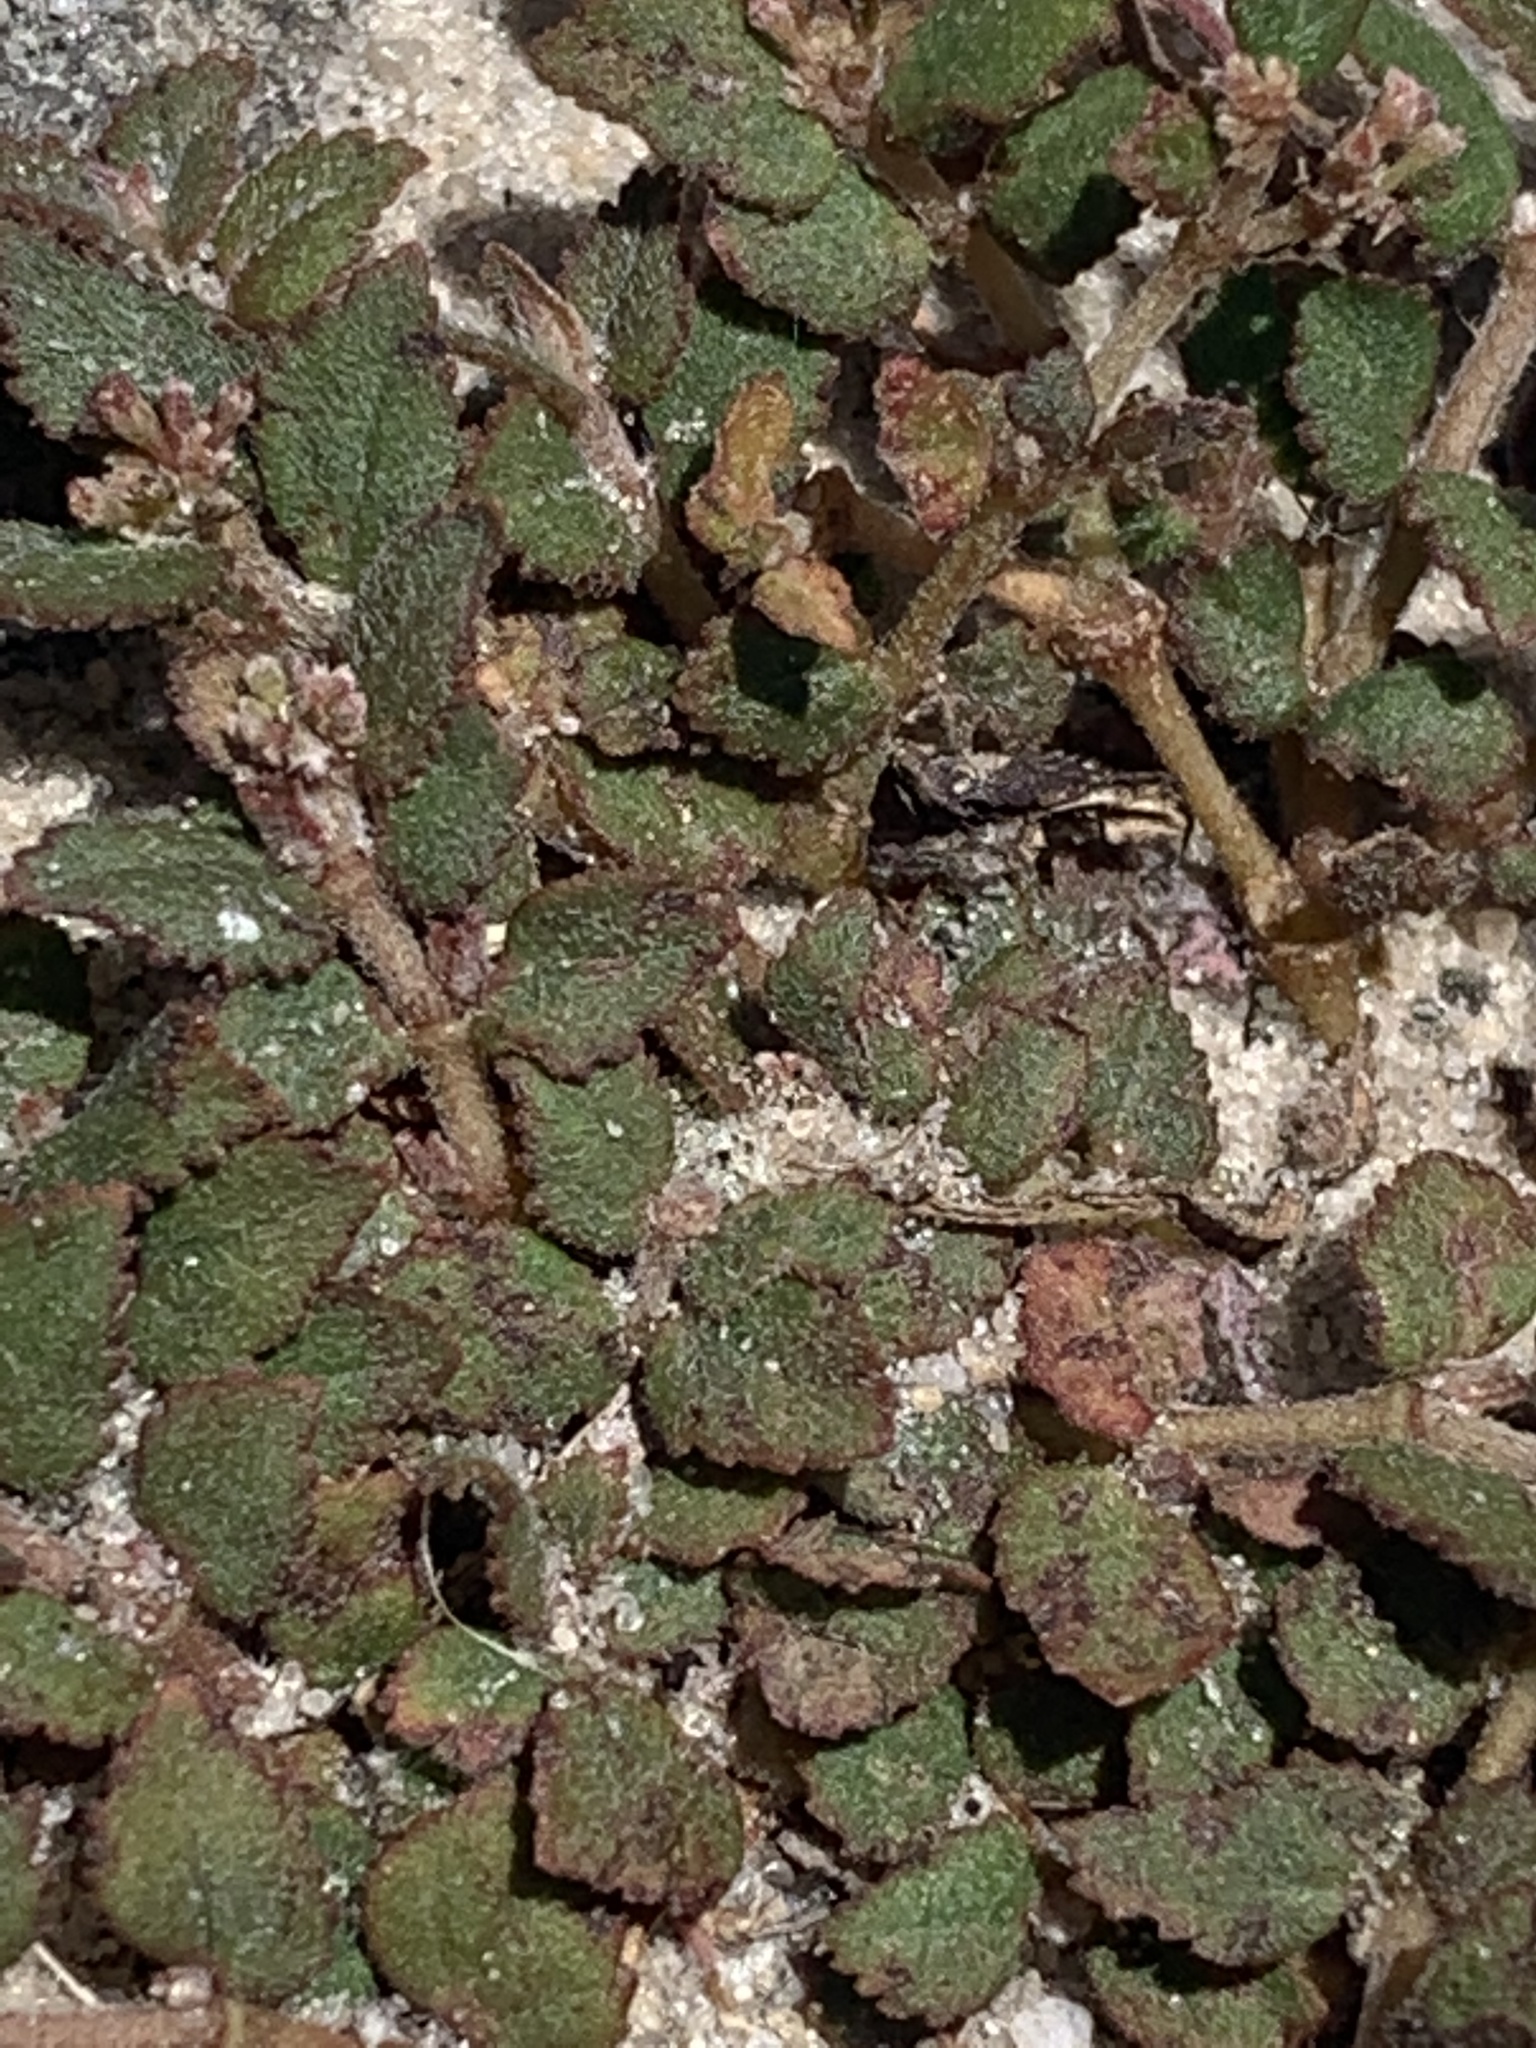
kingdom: Plantae
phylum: Tracheophyta
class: Magnoliopsida
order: Malpighiales
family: Euphorbiaceae
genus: Euphorbia
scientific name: Euphorbia ophthalmica
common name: Florida hammock sandmat
